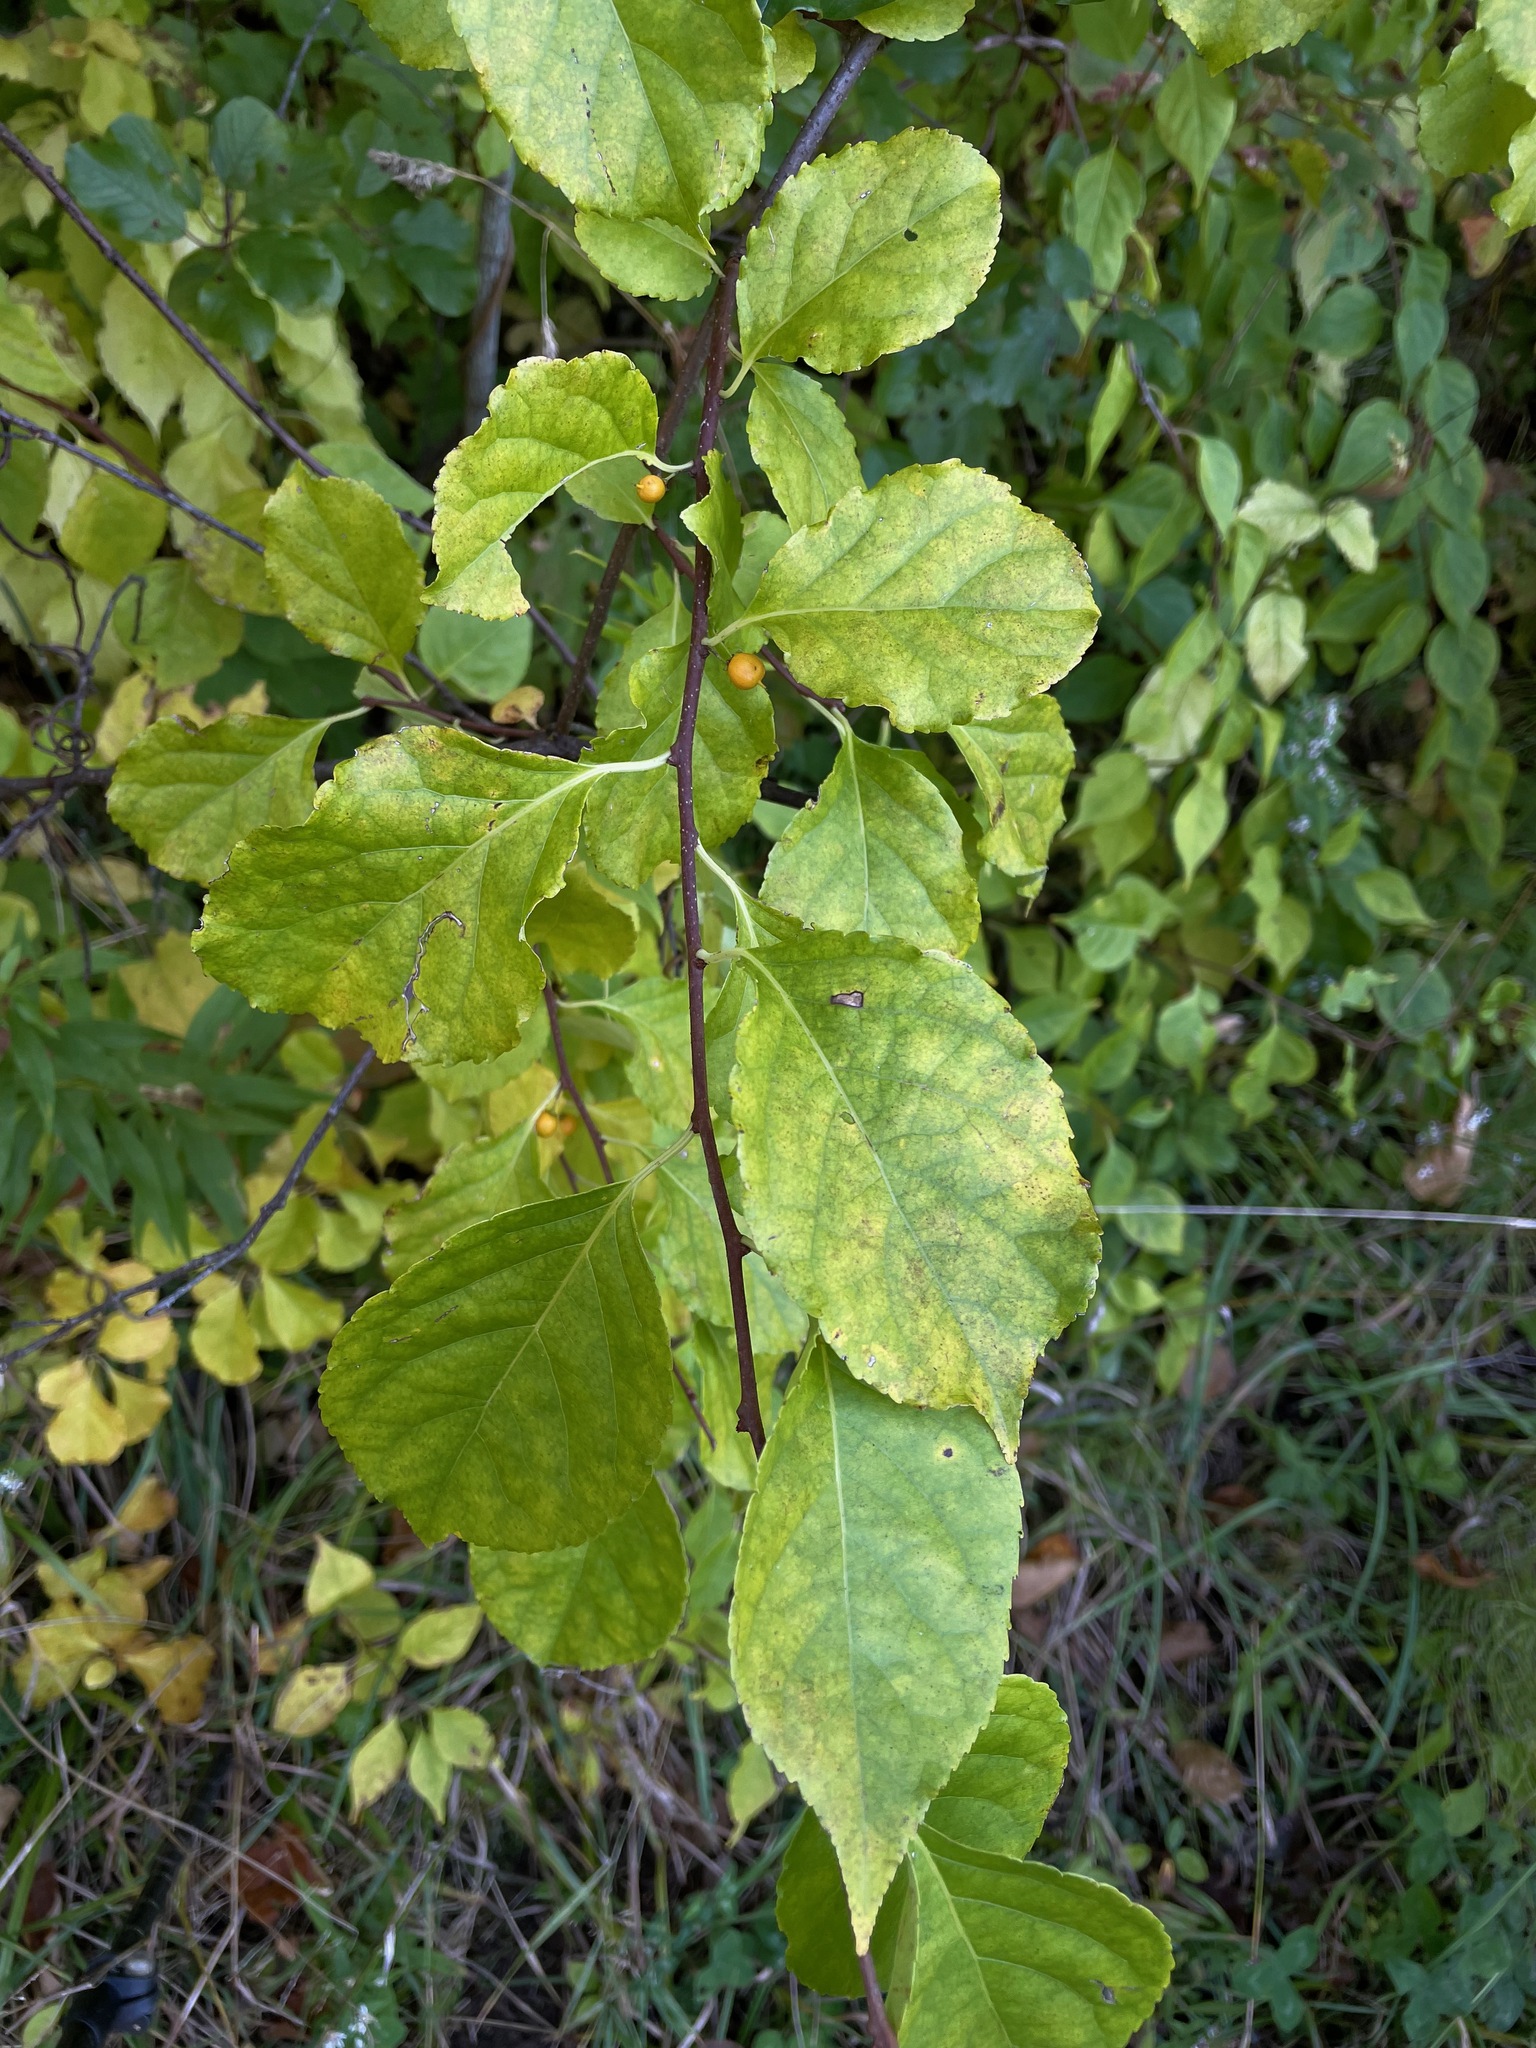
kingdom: Plantae
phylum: Tracheophyta
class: Magnoliopsida
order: Celastrales
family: Celastraceae
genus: Celastrus
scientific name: Celastrus orbiculatus
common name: Oriental bittersweet
